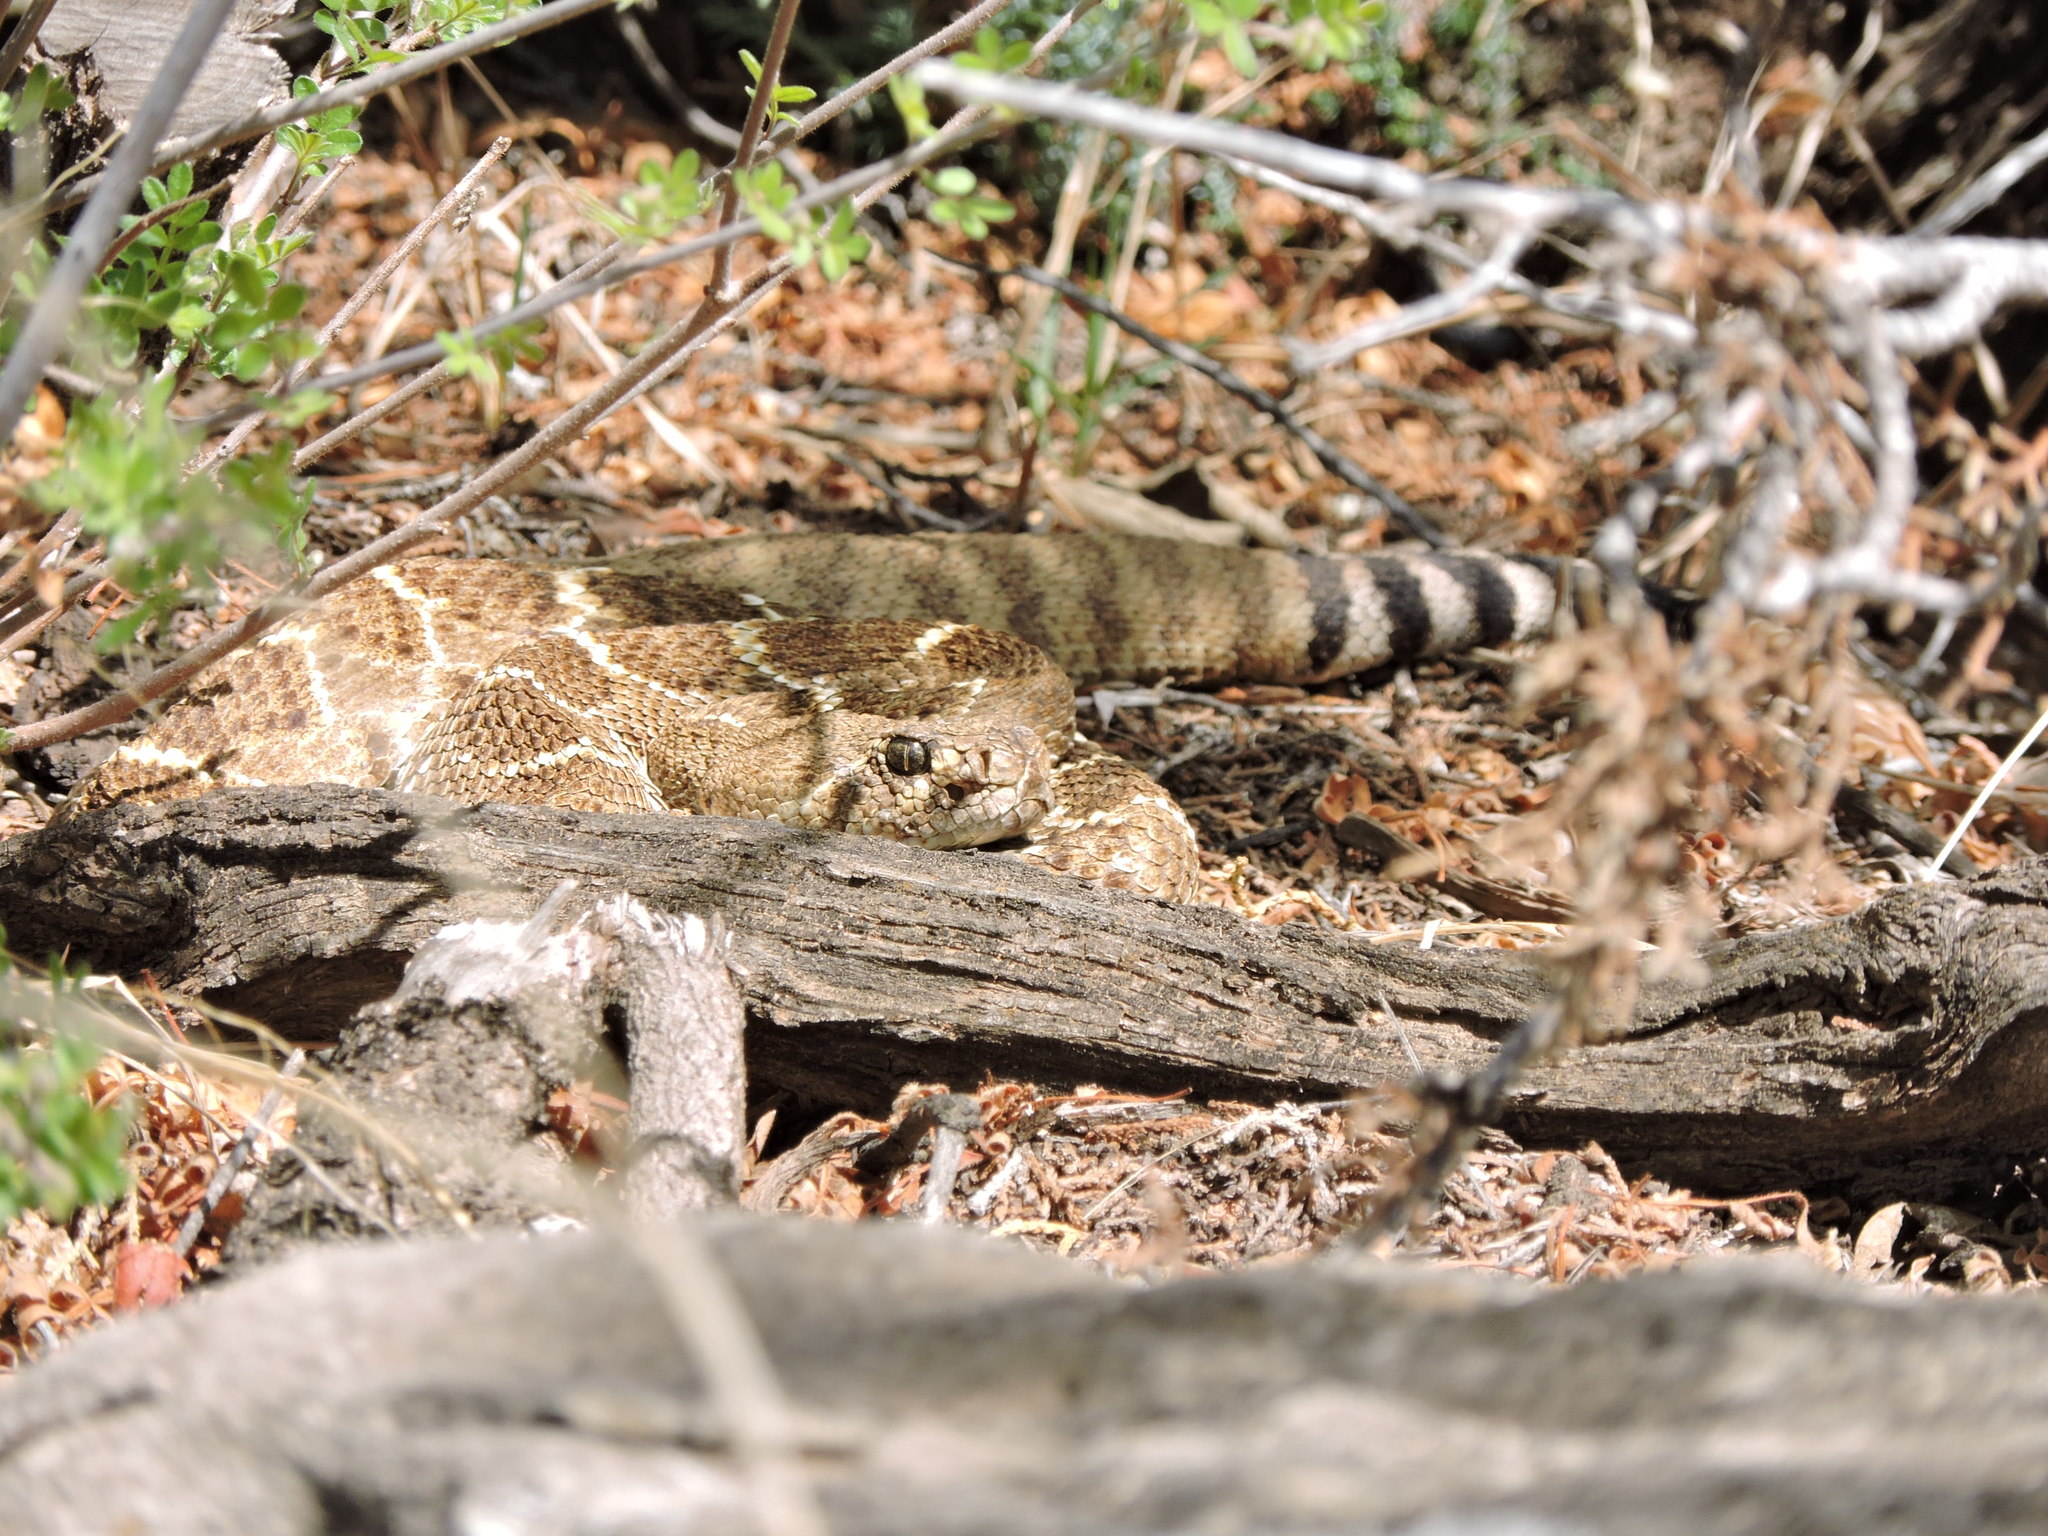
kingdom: Animalia
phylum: Chordata
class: Squamata
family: Viperidae
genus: Crotalus
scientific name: Crotalus atrox
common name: Western diamond-backed rattlesnake
